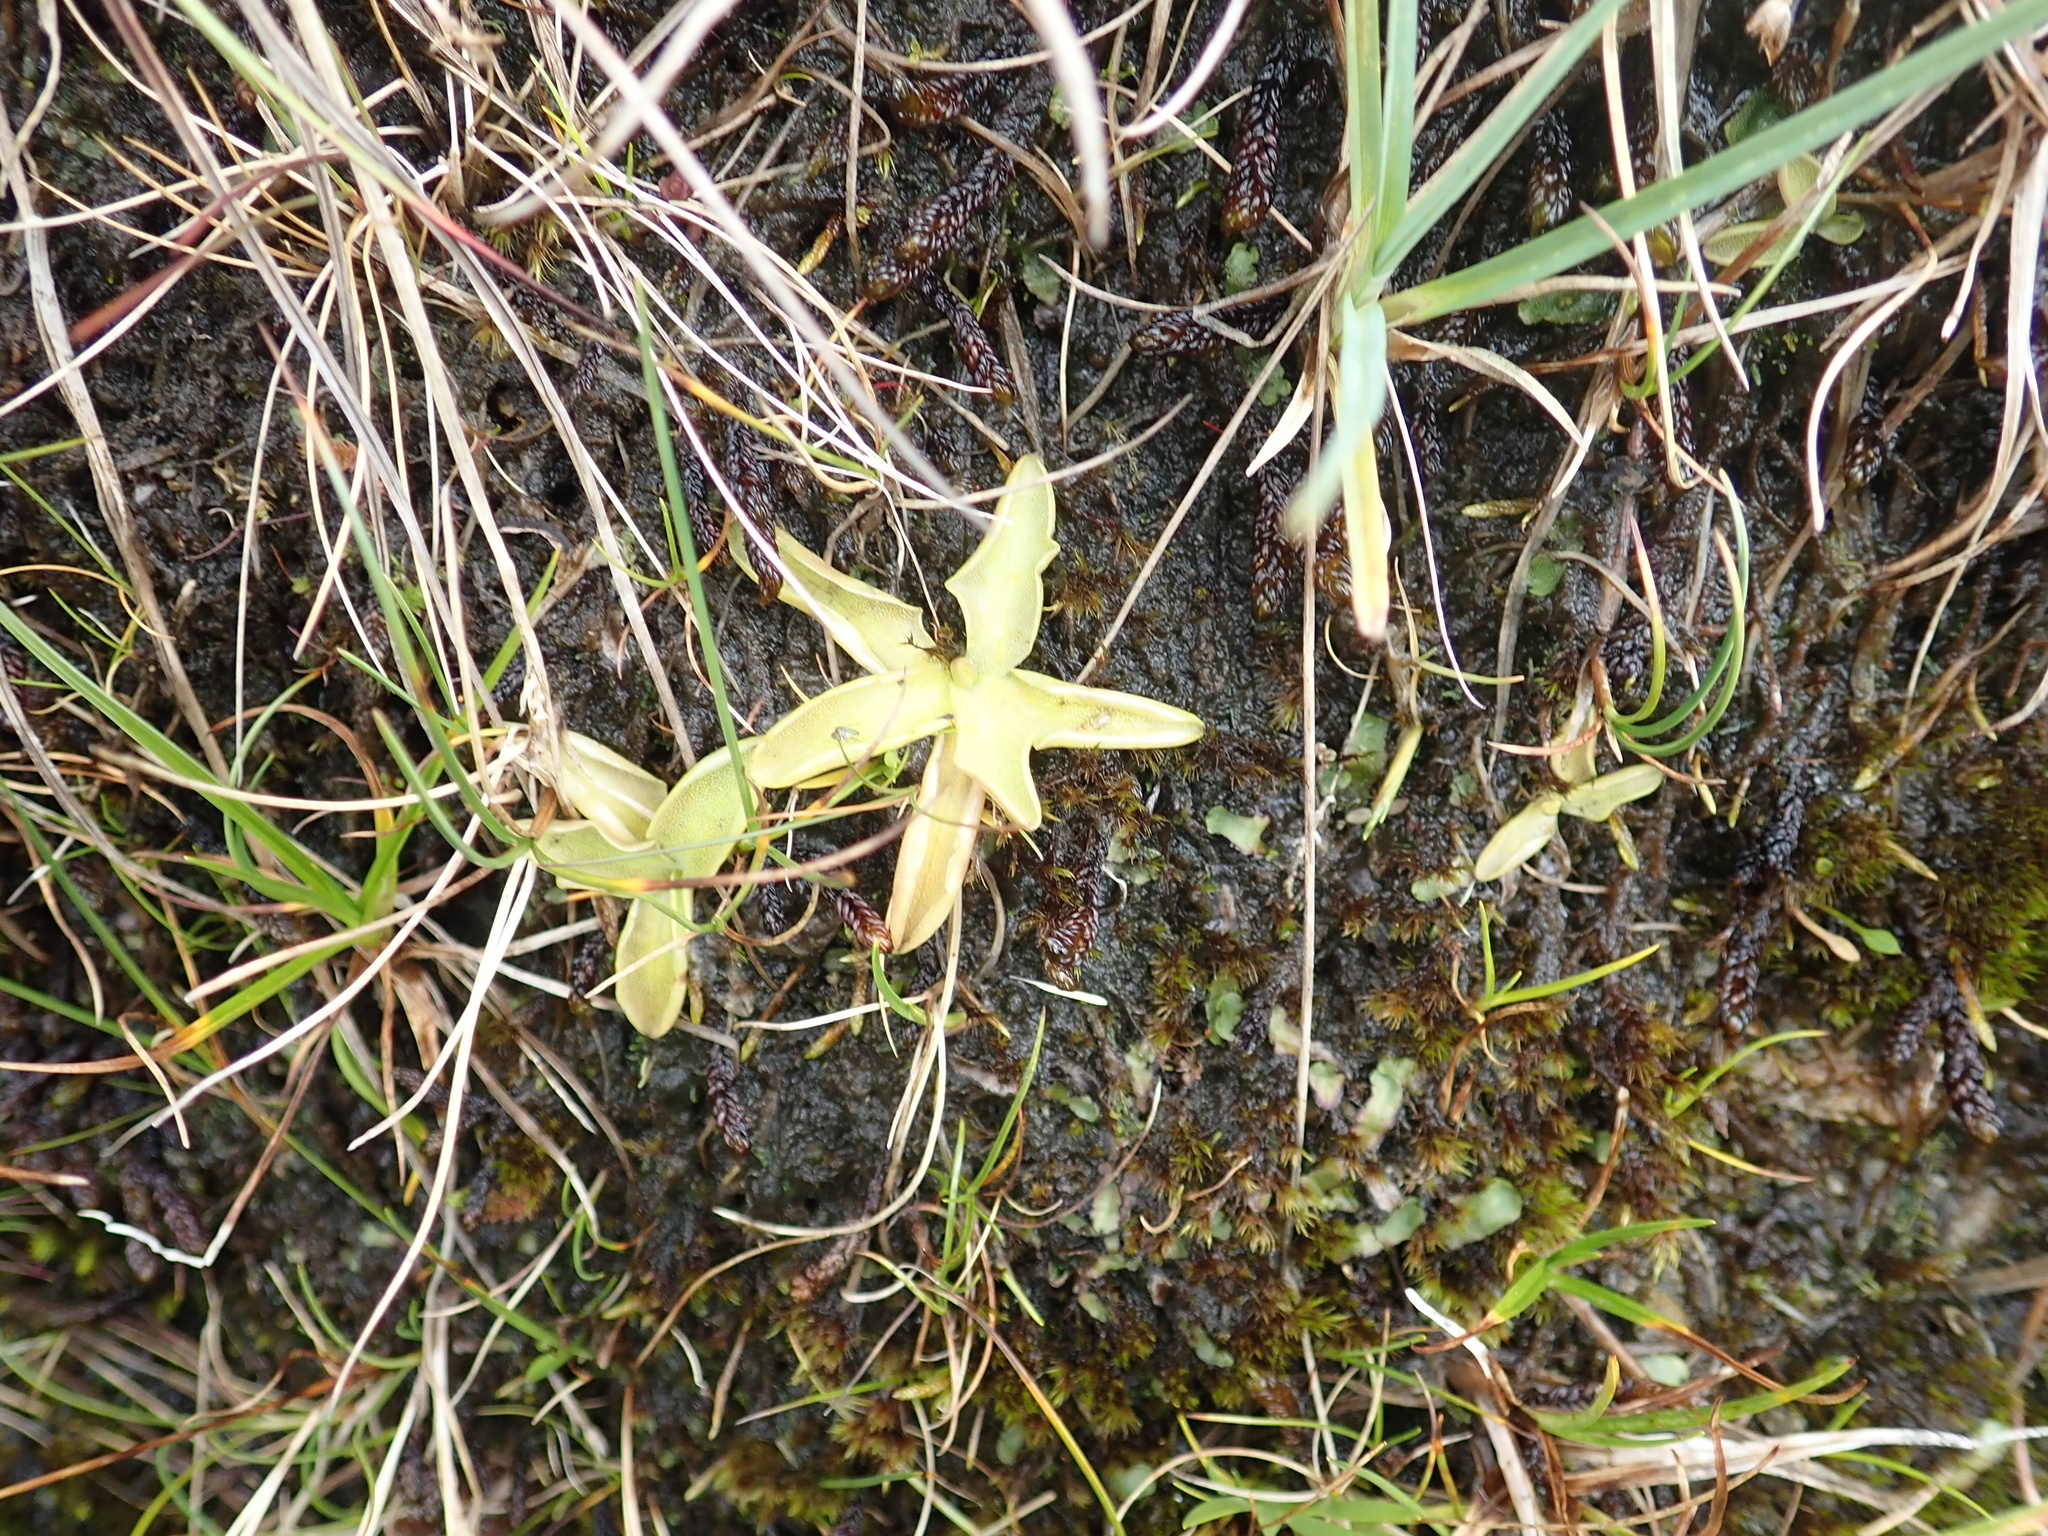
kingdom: Plantae
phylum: Tracheophyta
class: Magnoliopsida
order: Lamiales
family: Lentibulariaceae
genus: Pinguicula
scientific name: Pinguicula vulgaris
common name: Common butterwort
